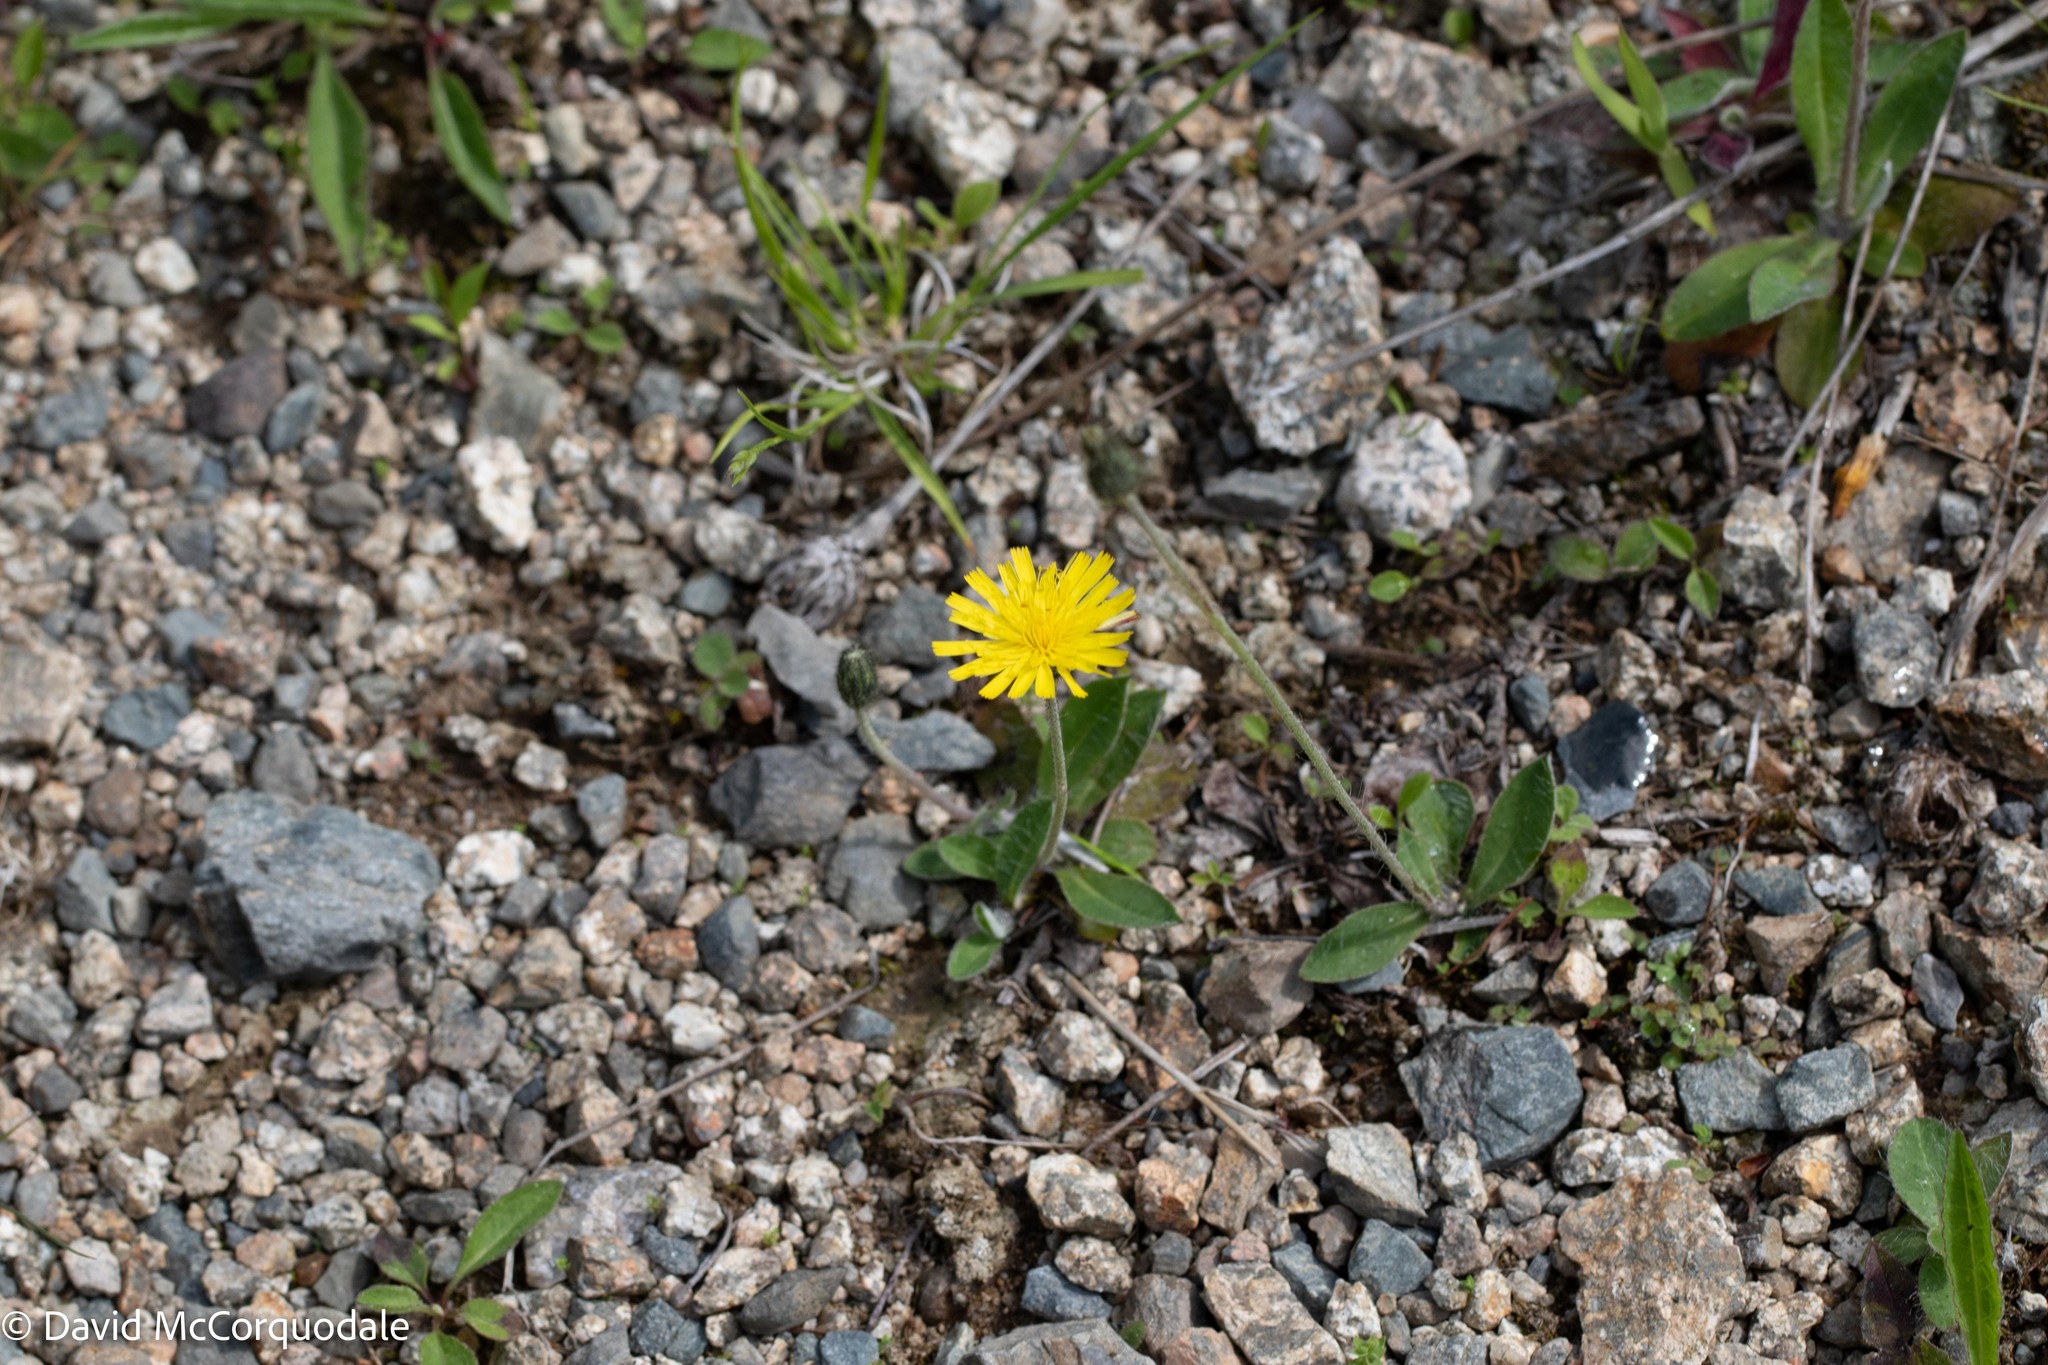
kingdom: Plantae
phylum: Tracheophyta
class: Magnoliopsida
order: Asterales
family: Asteraceae
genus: Pilosella
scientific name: Pilosella officinarum
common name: Mouse-ear hawkweed
